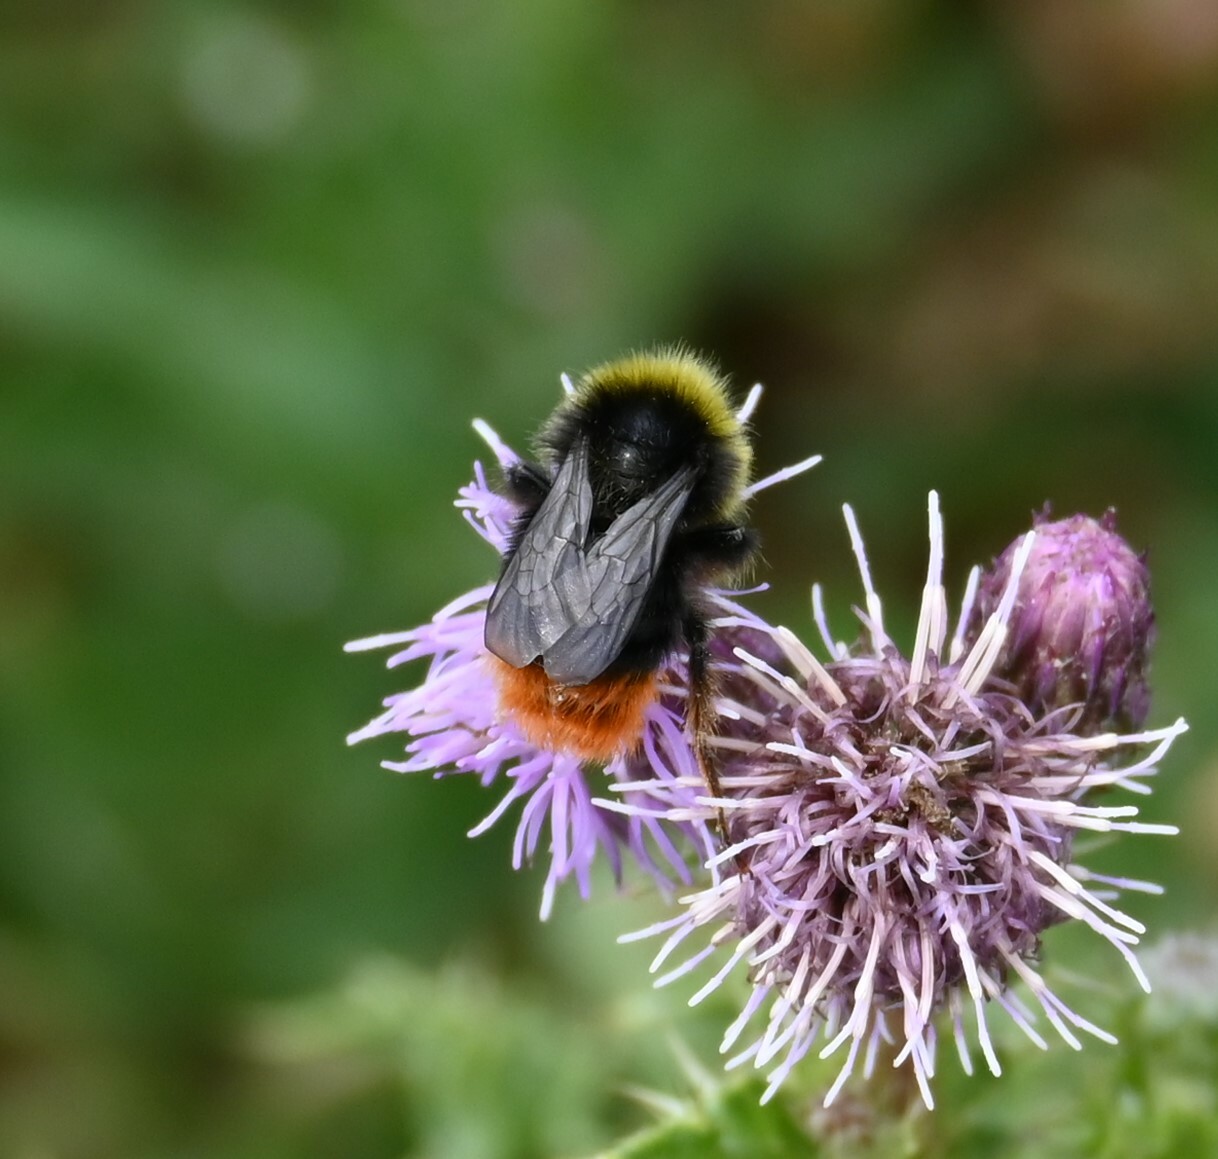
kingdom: Animalia
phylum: Arthropoda
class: Insecta
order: Hymenoptera
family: Apidae
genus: Bombus
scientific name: Bombus lapidarius
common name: Large red-tailed humble-bee
